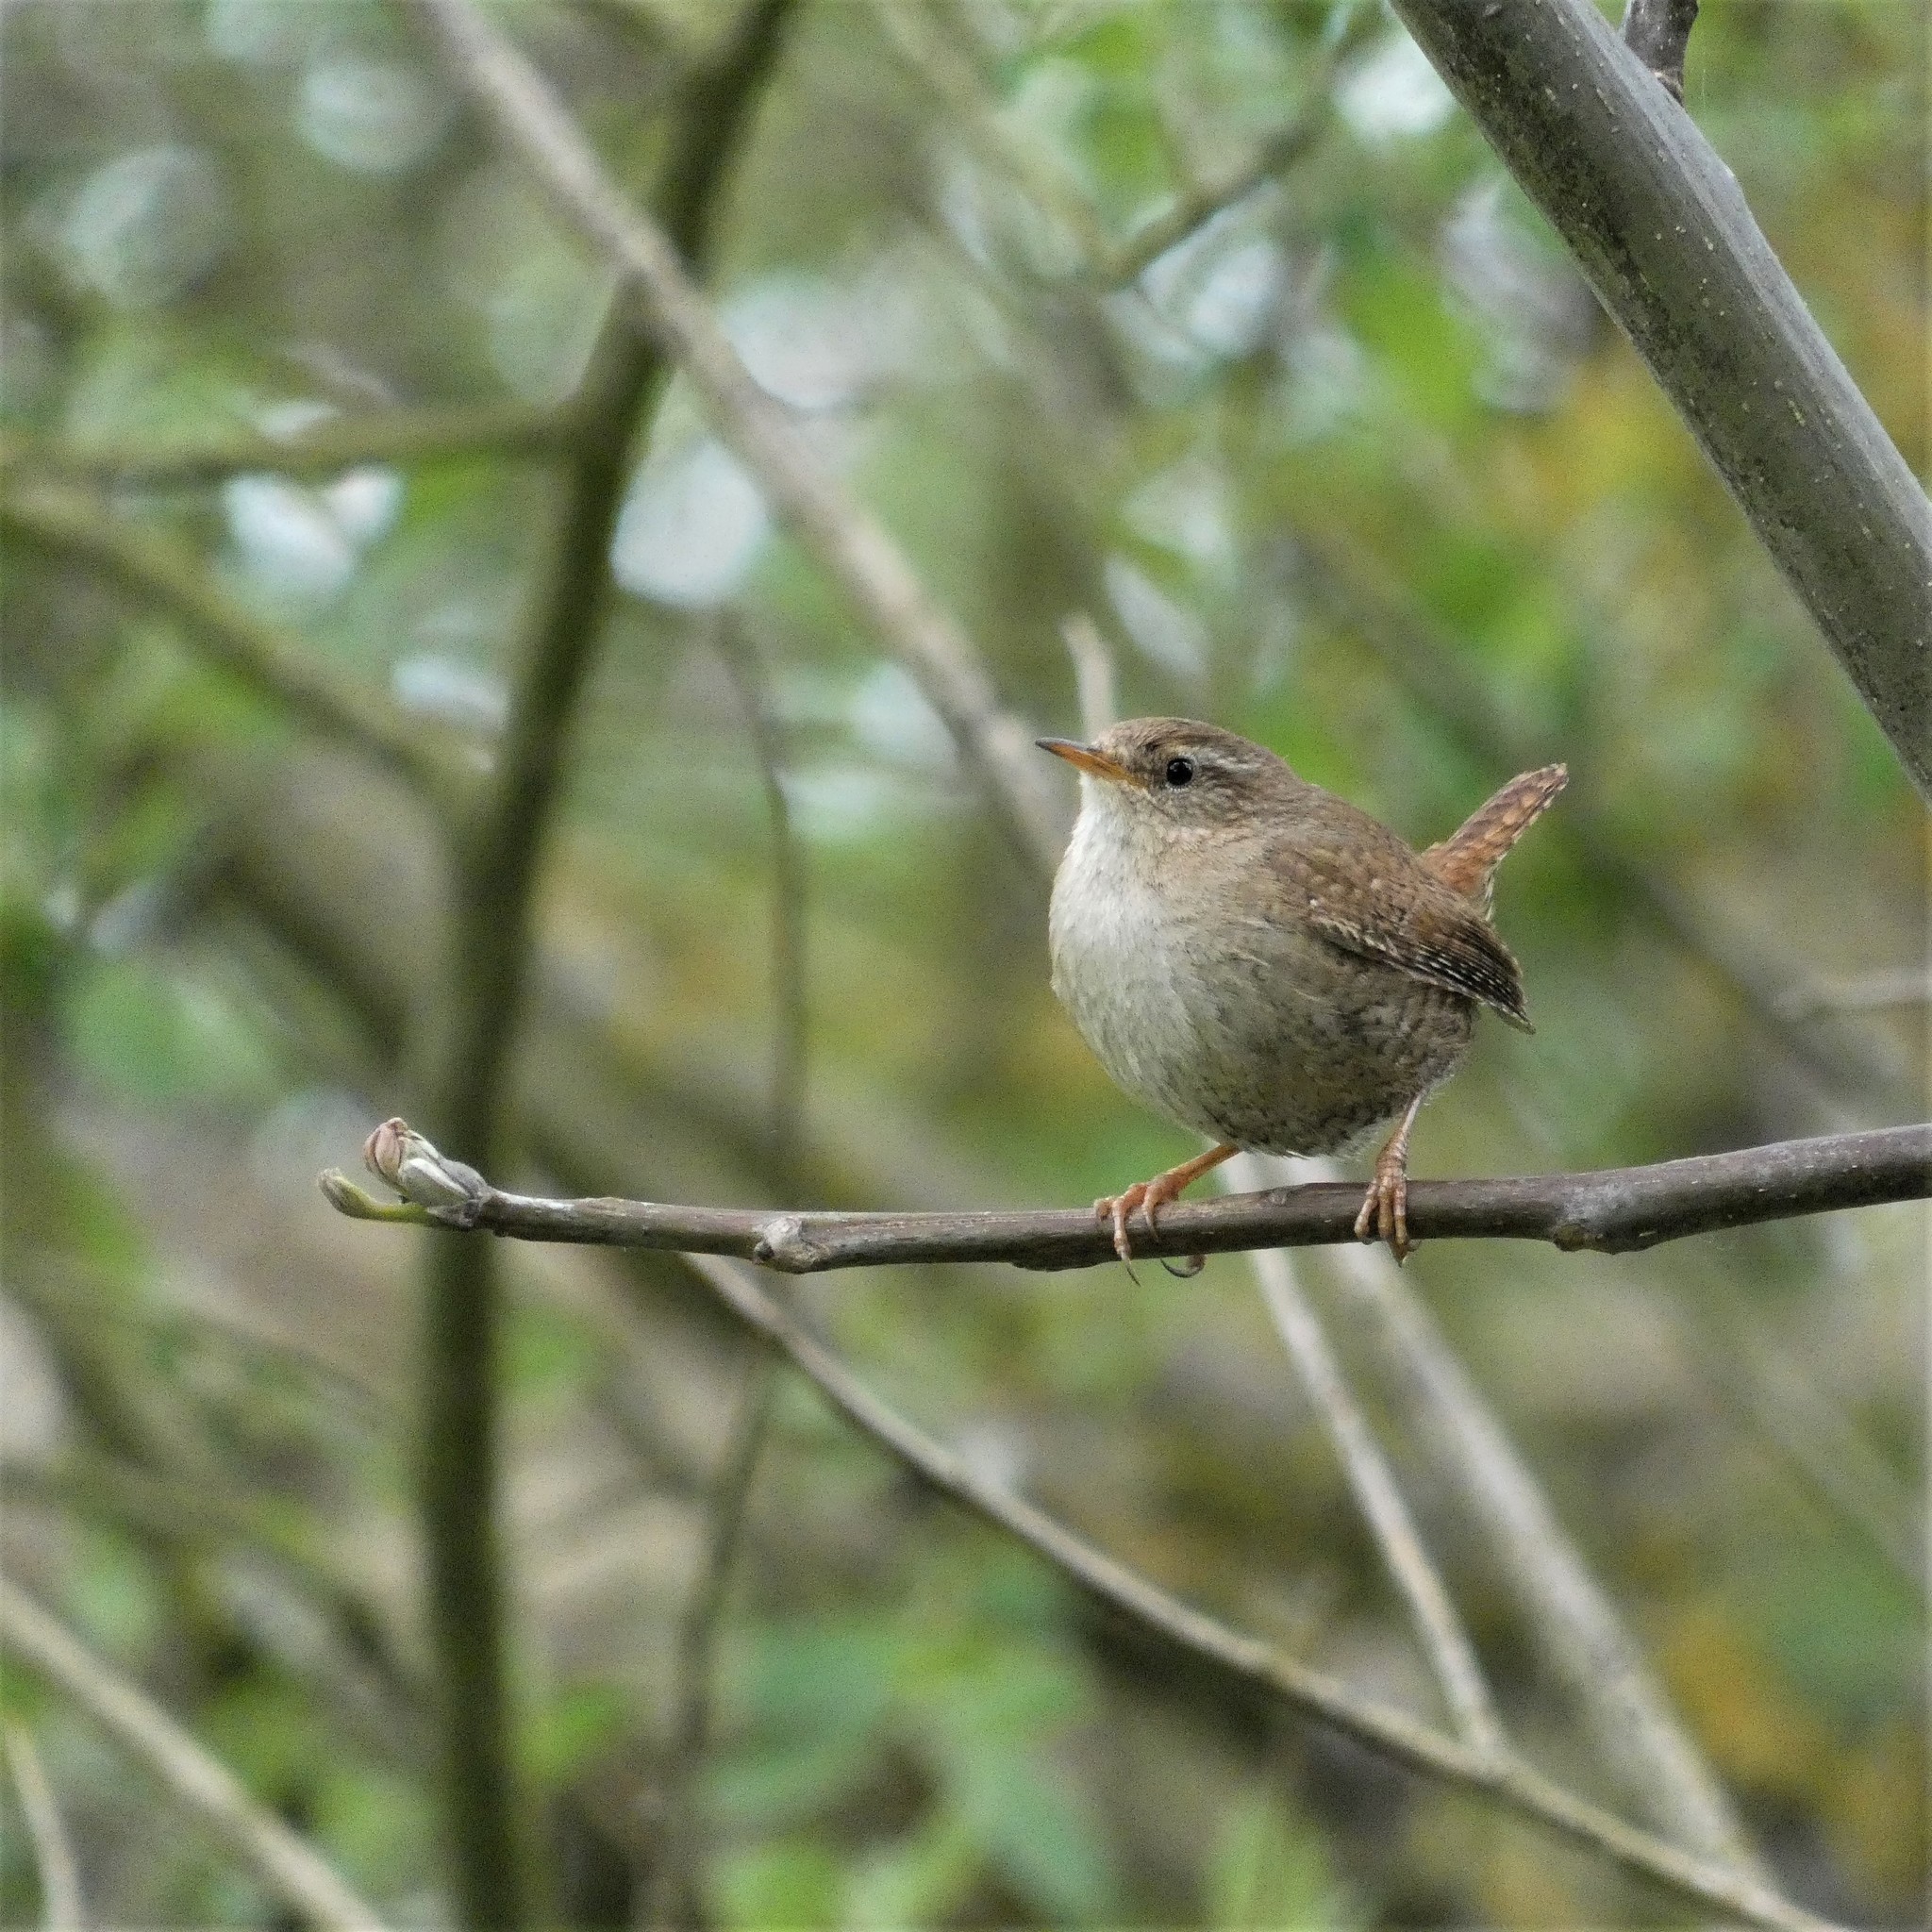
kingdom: Animalia
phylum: Chordata
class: Aves
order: Passeriformes
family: Troglodytidae
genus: Troglodytes
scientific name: Troglodytes troglodytes
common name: Eurasian wren
